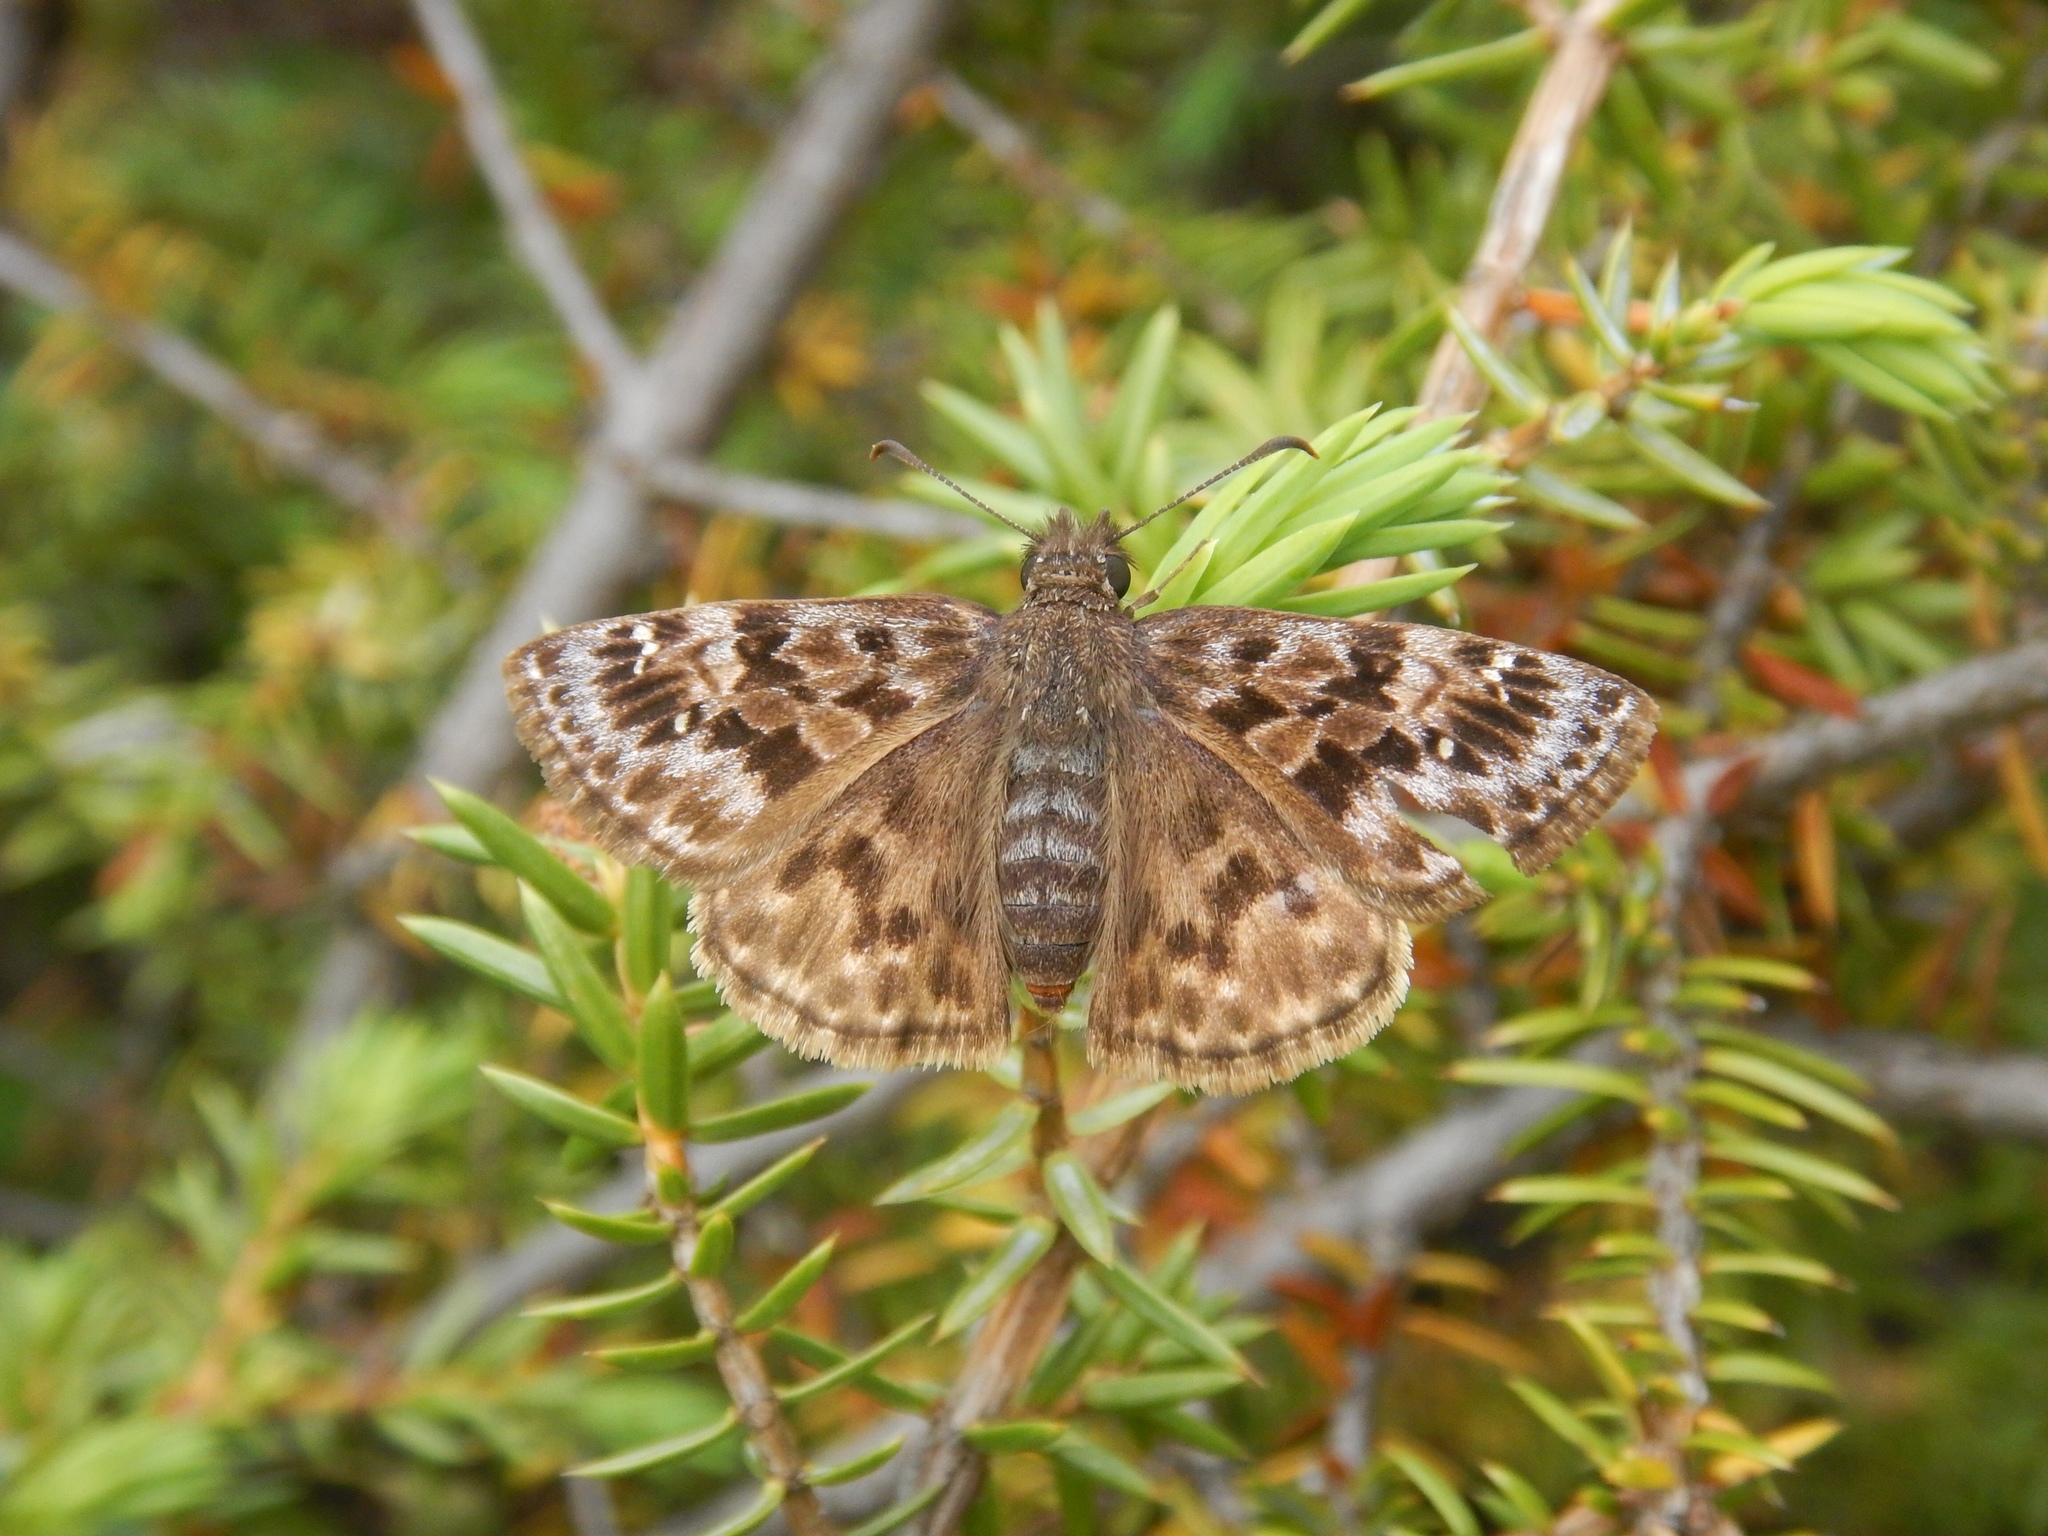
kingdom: Animalia
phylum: Arthropoda
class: Insecta
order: Lepidoptera
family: Hesperiidae
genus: Erynnis
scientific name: Erynnis martialis
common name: Mottled duskywing
